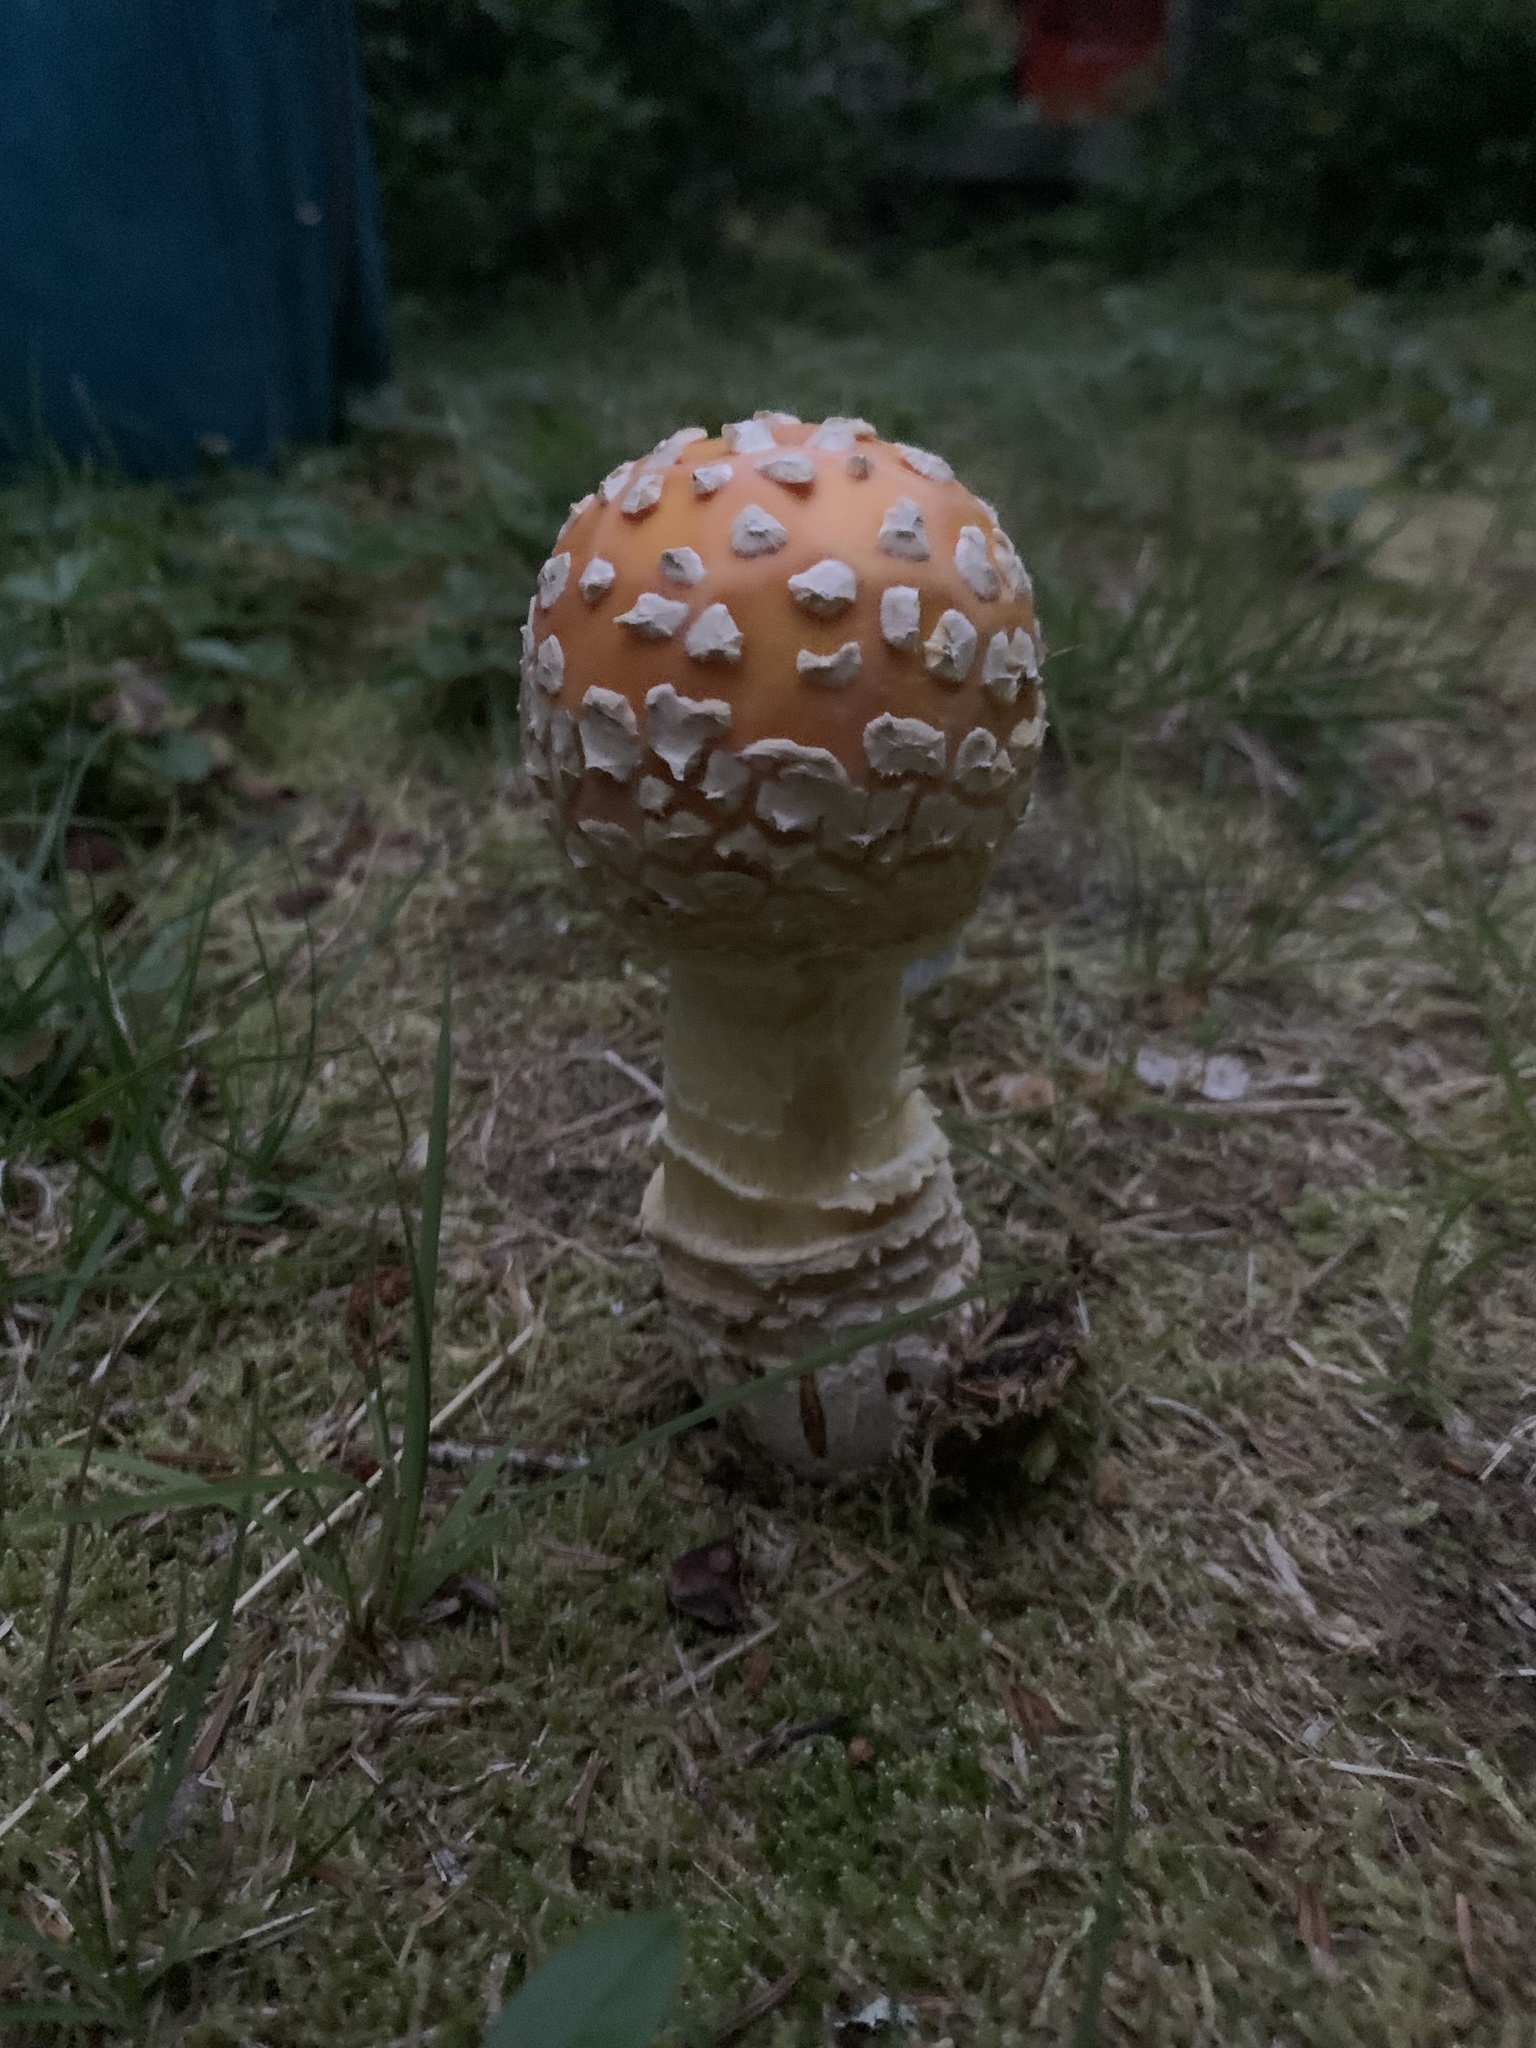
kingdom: Fungi
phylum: Basidiomycota
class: Agaricomycetes
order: Agaricales
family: Amanitaceae
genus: Amanita
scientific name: Amanita muscaria
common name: Fly agaric
